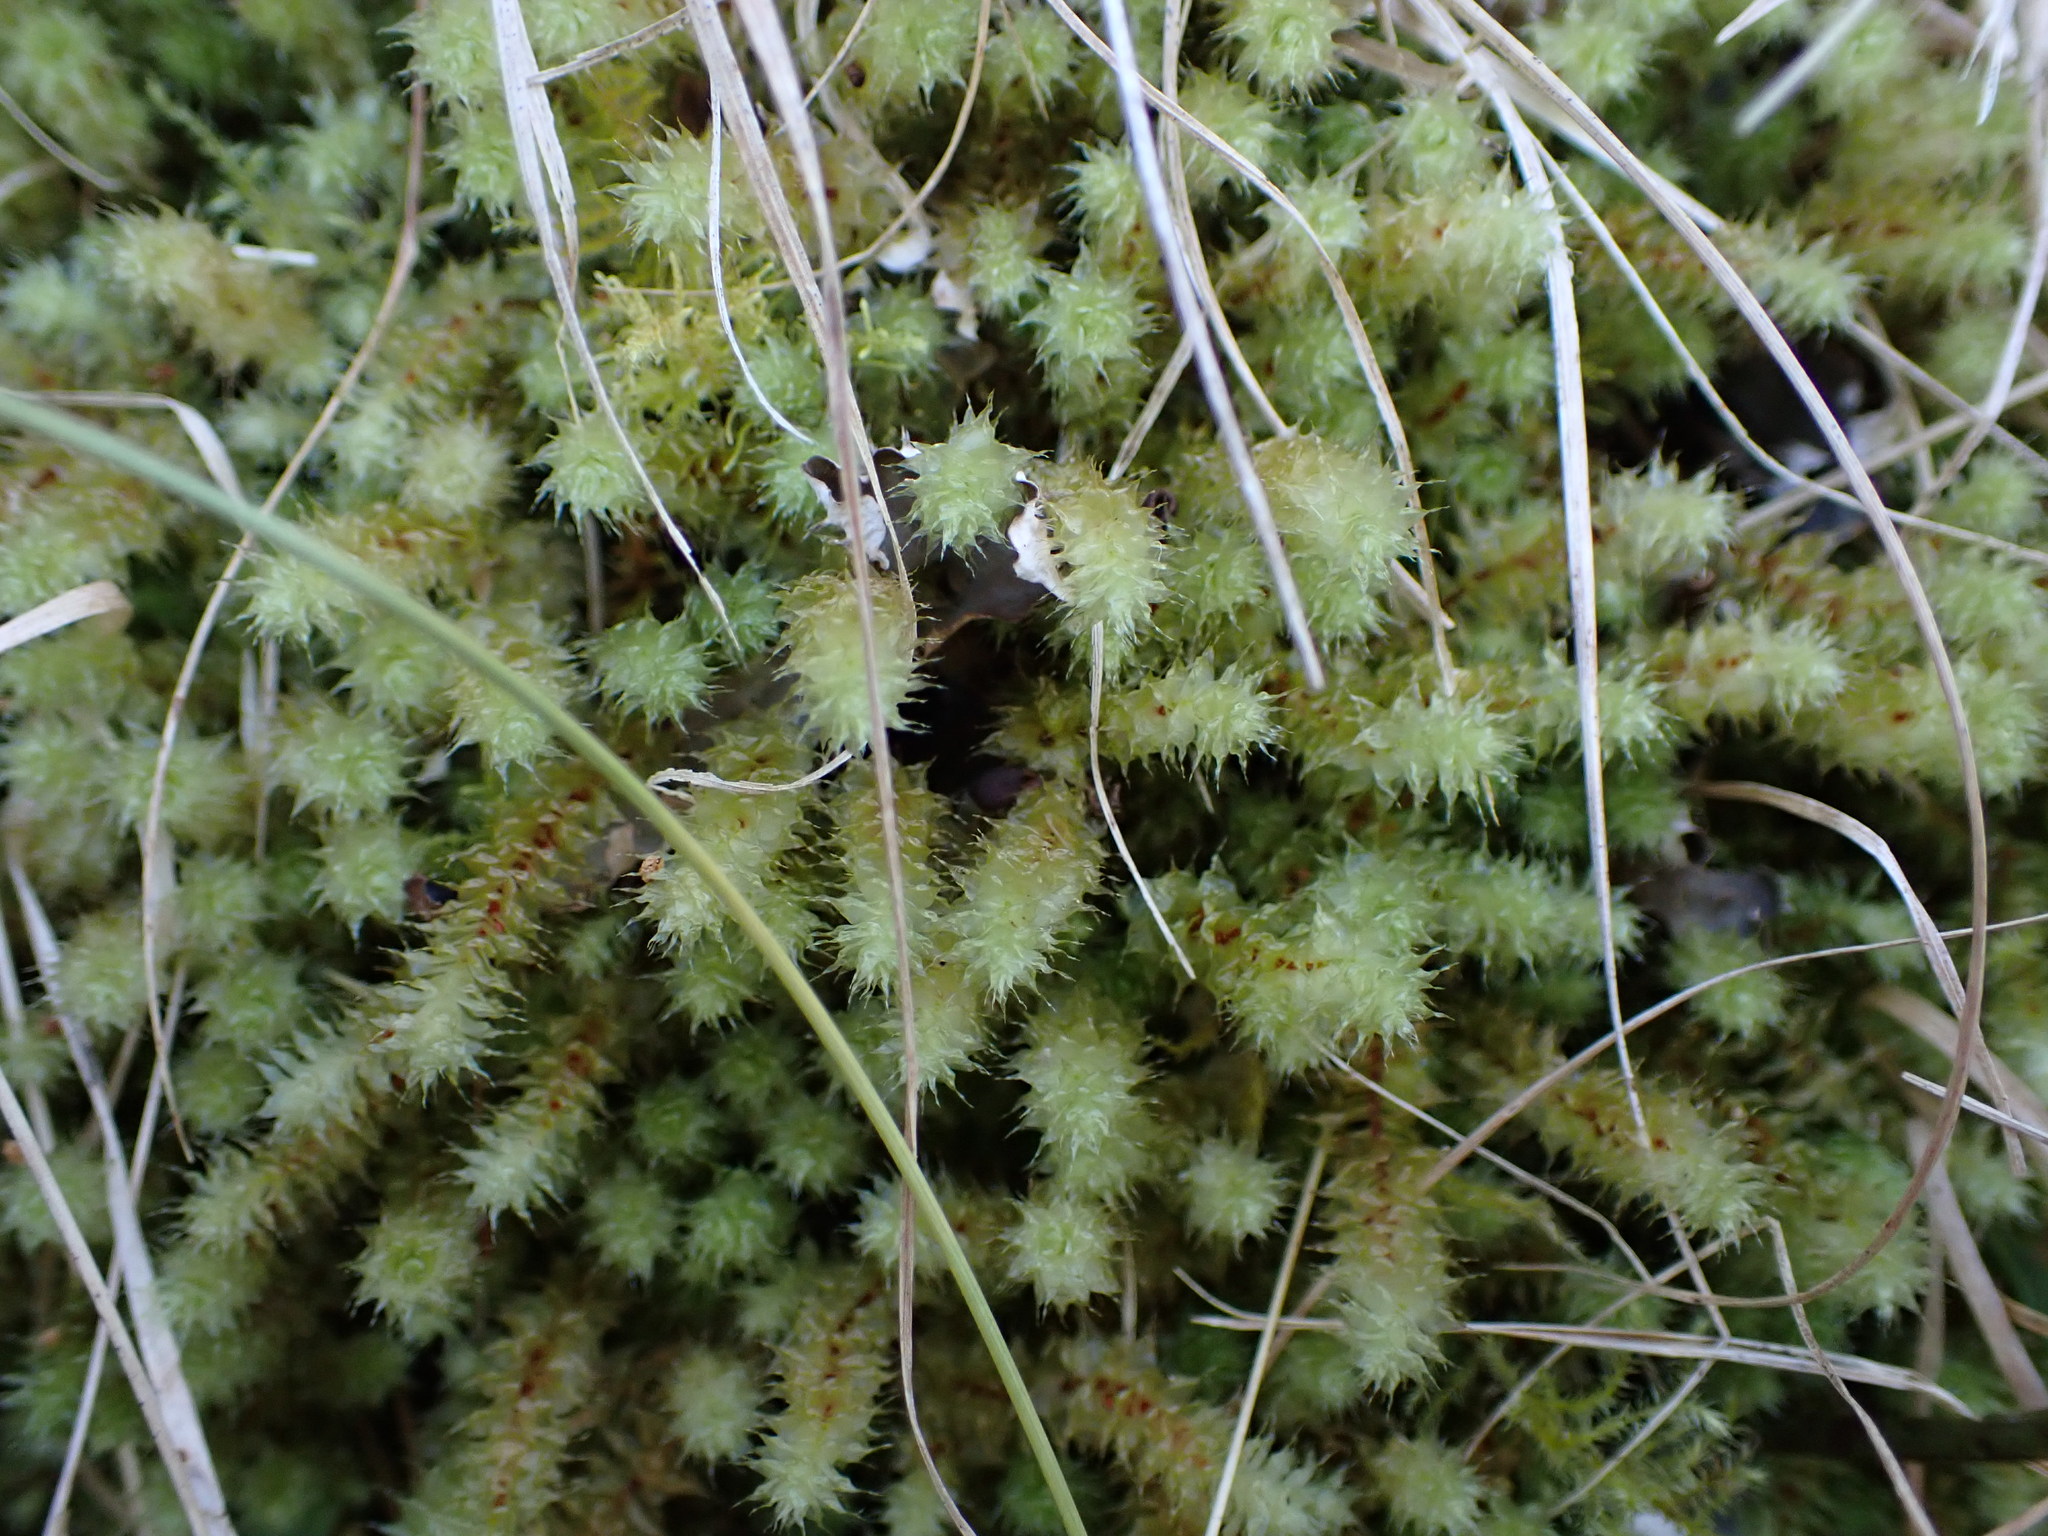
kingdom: Plantae
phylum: Bryophyta
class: Bryopsida
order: Ptychomniales
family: Ptychomniaceae
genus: Ptychomnion
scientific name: Ptychomnion aciculare
